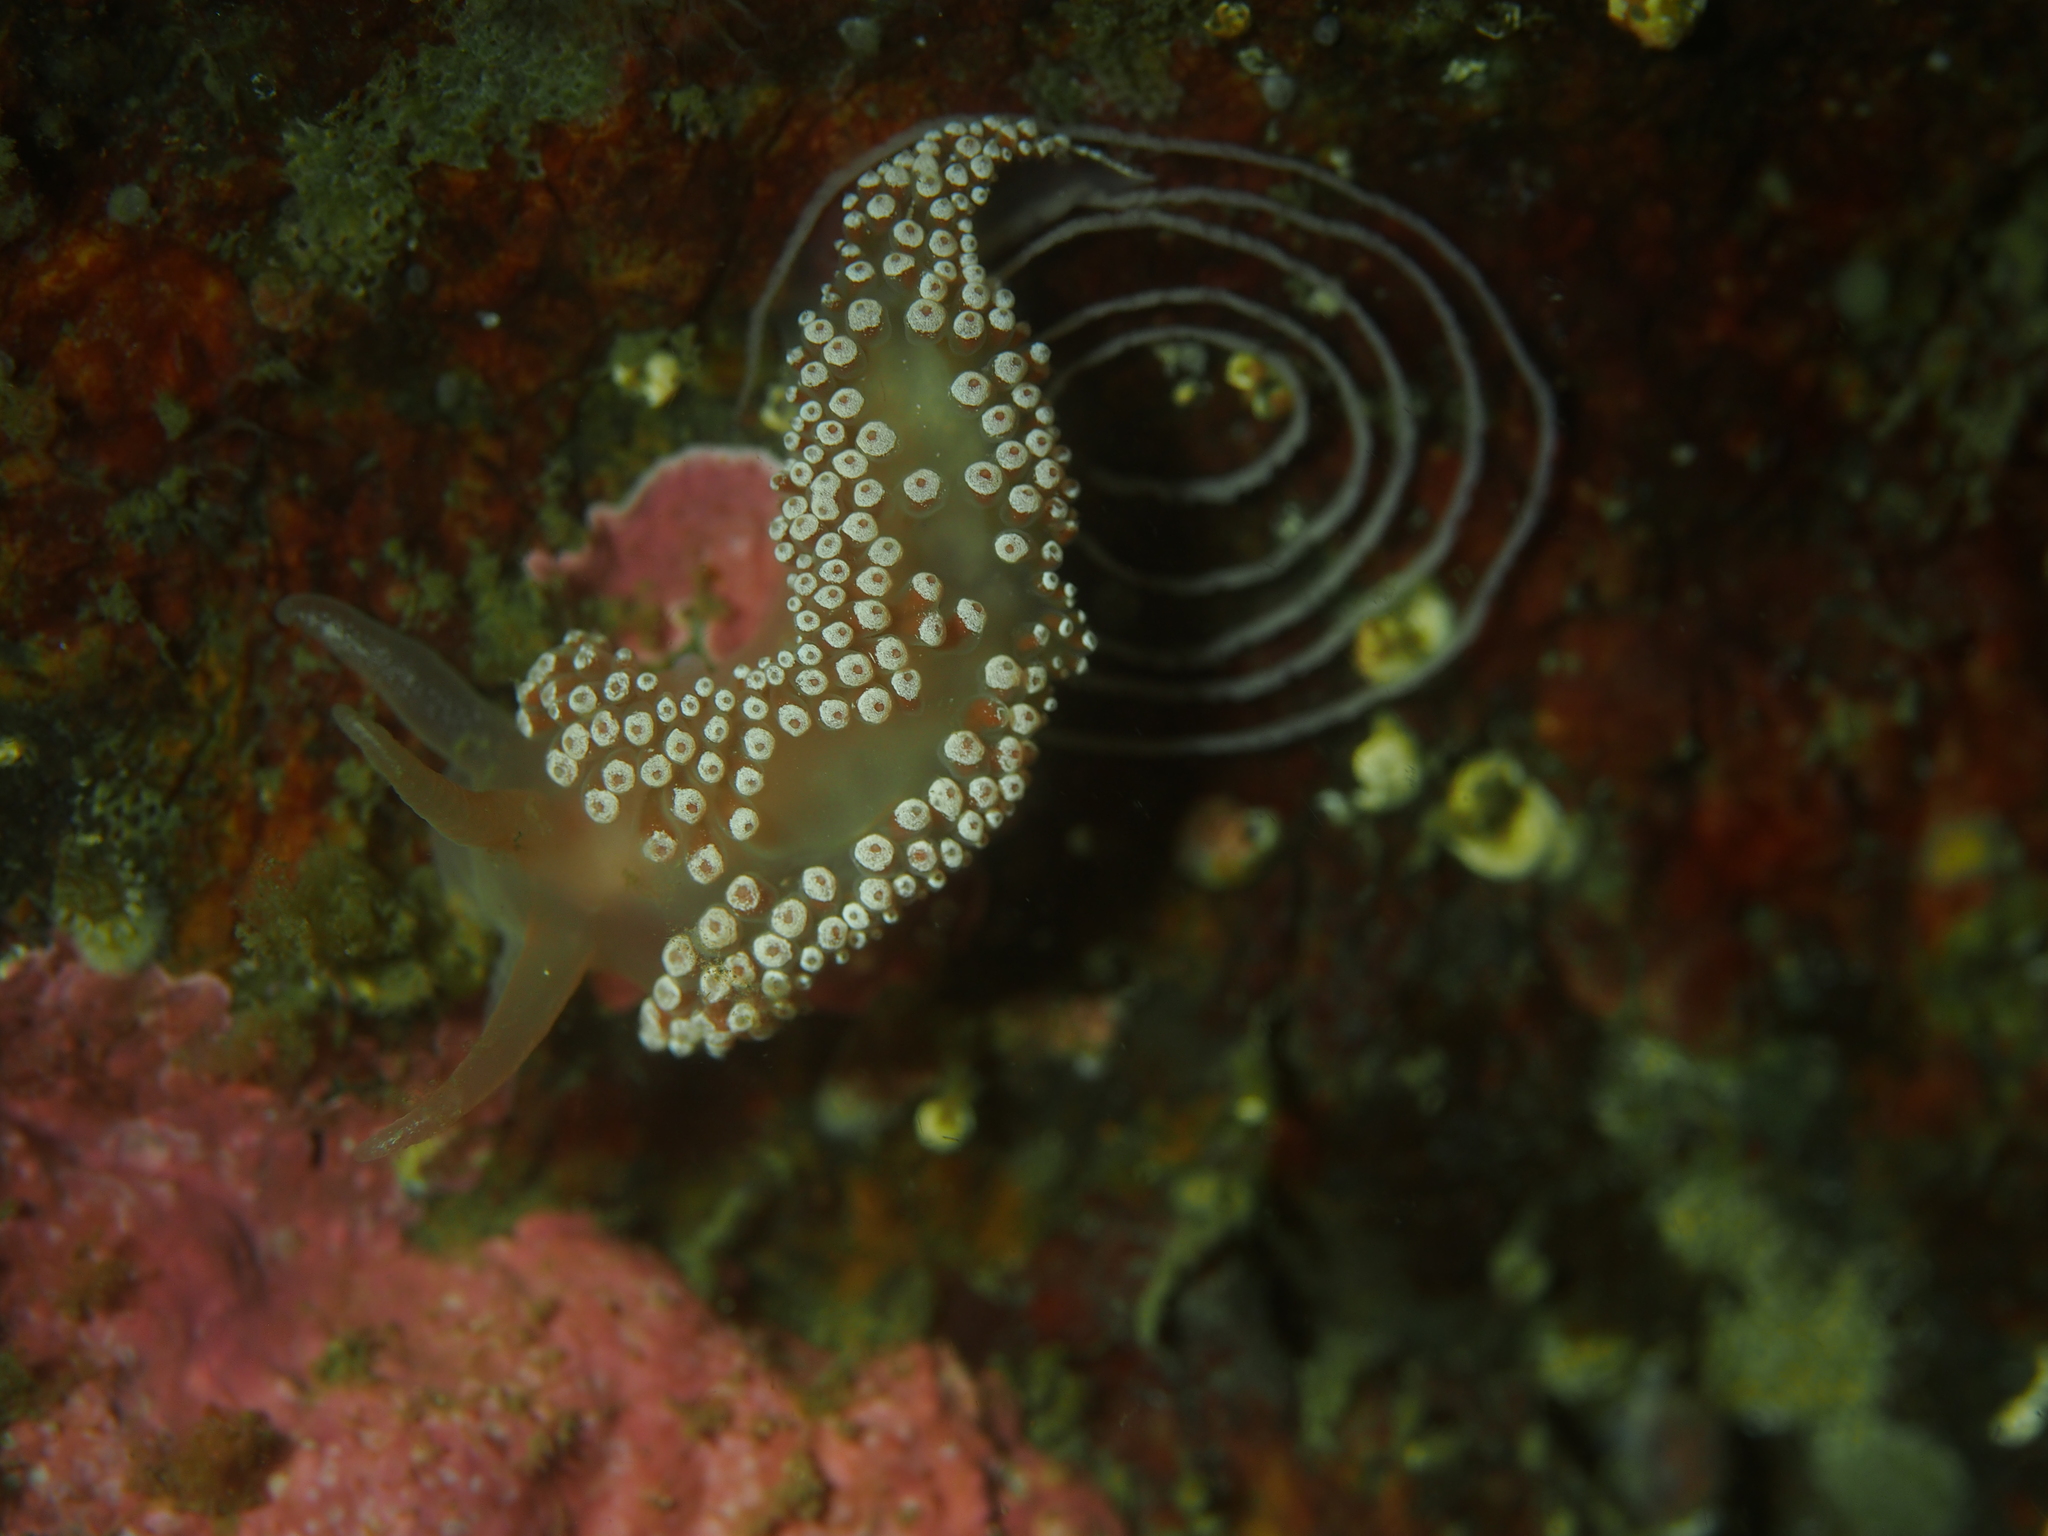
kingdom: Animalia
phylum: Mollusca
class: Gastropoda
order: Nudibranchia
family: Coryphellidae
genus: Coryphella
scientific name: Coryphella verrucosa
